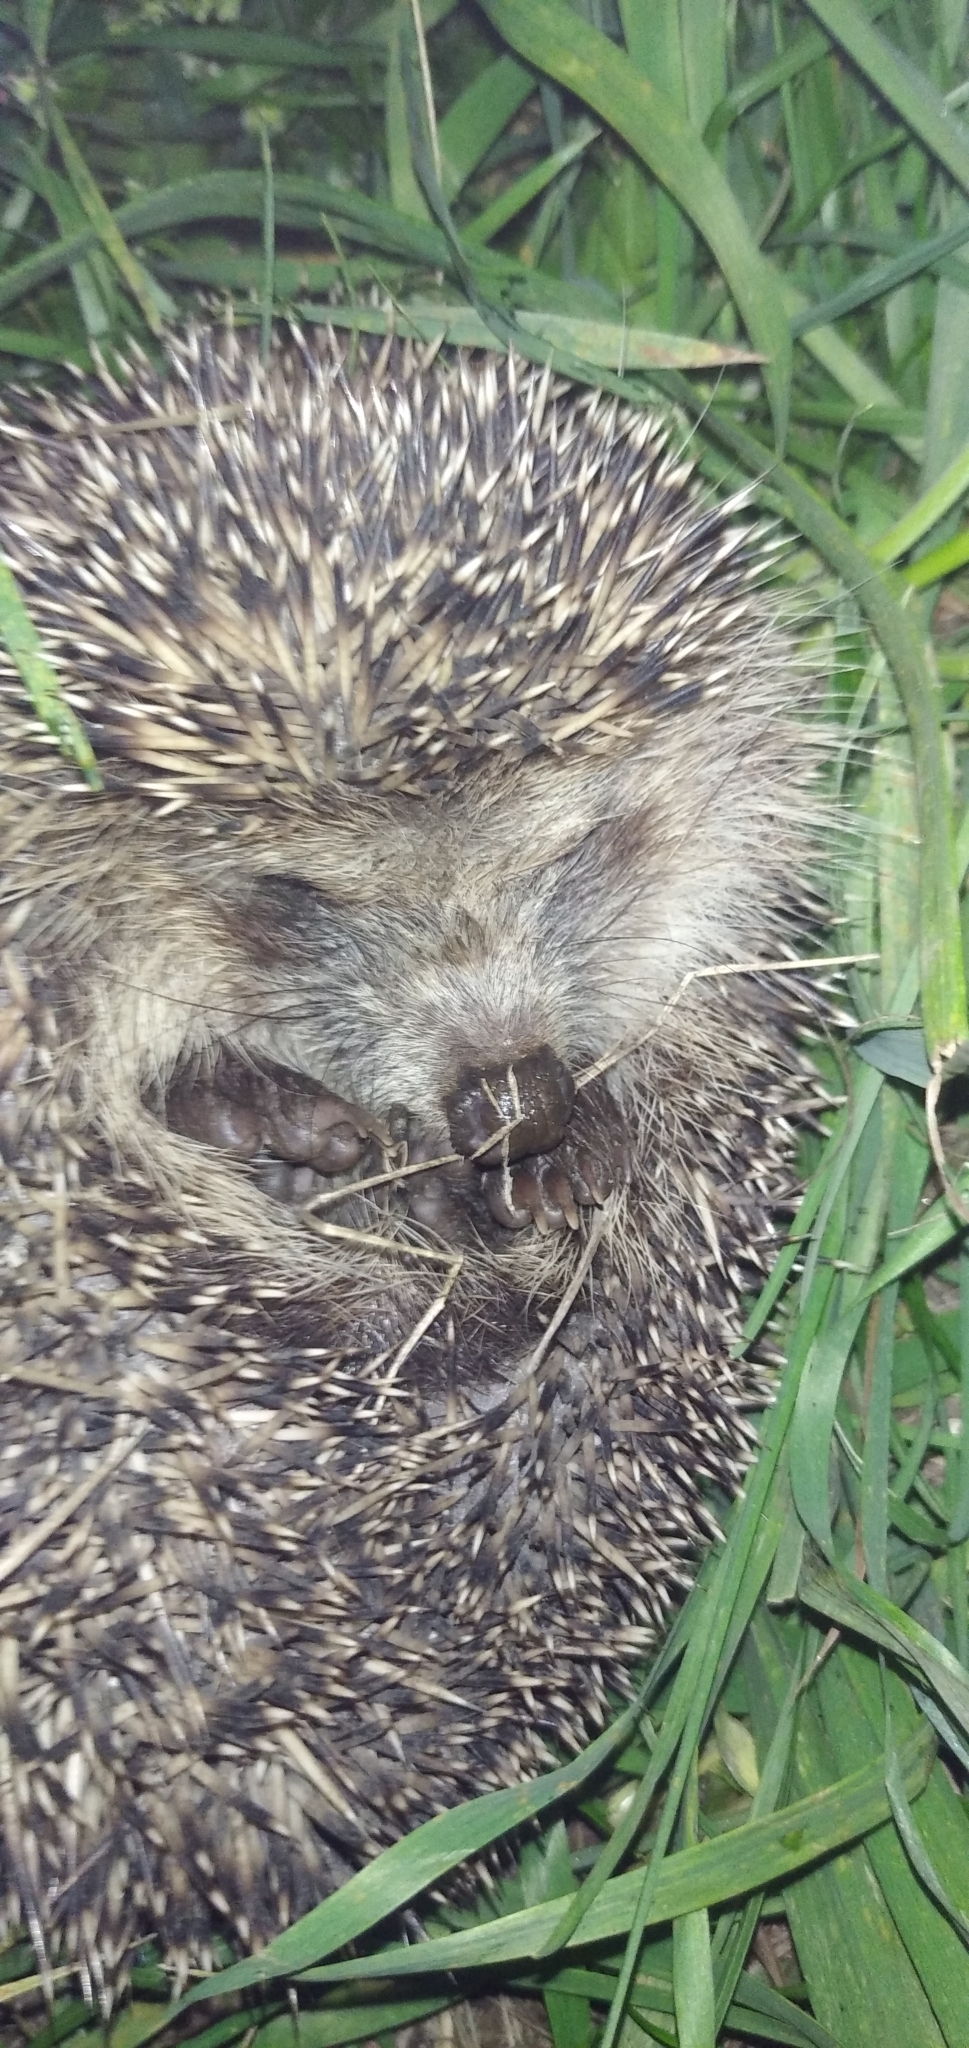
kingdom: Animalia
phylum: Chordata
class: Mammalia
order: Erinaceomorpha
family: Erinaceidae
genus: Erinaceus
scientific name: Erinaceus roumanicus
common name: Northern white-breasted hedgehog
